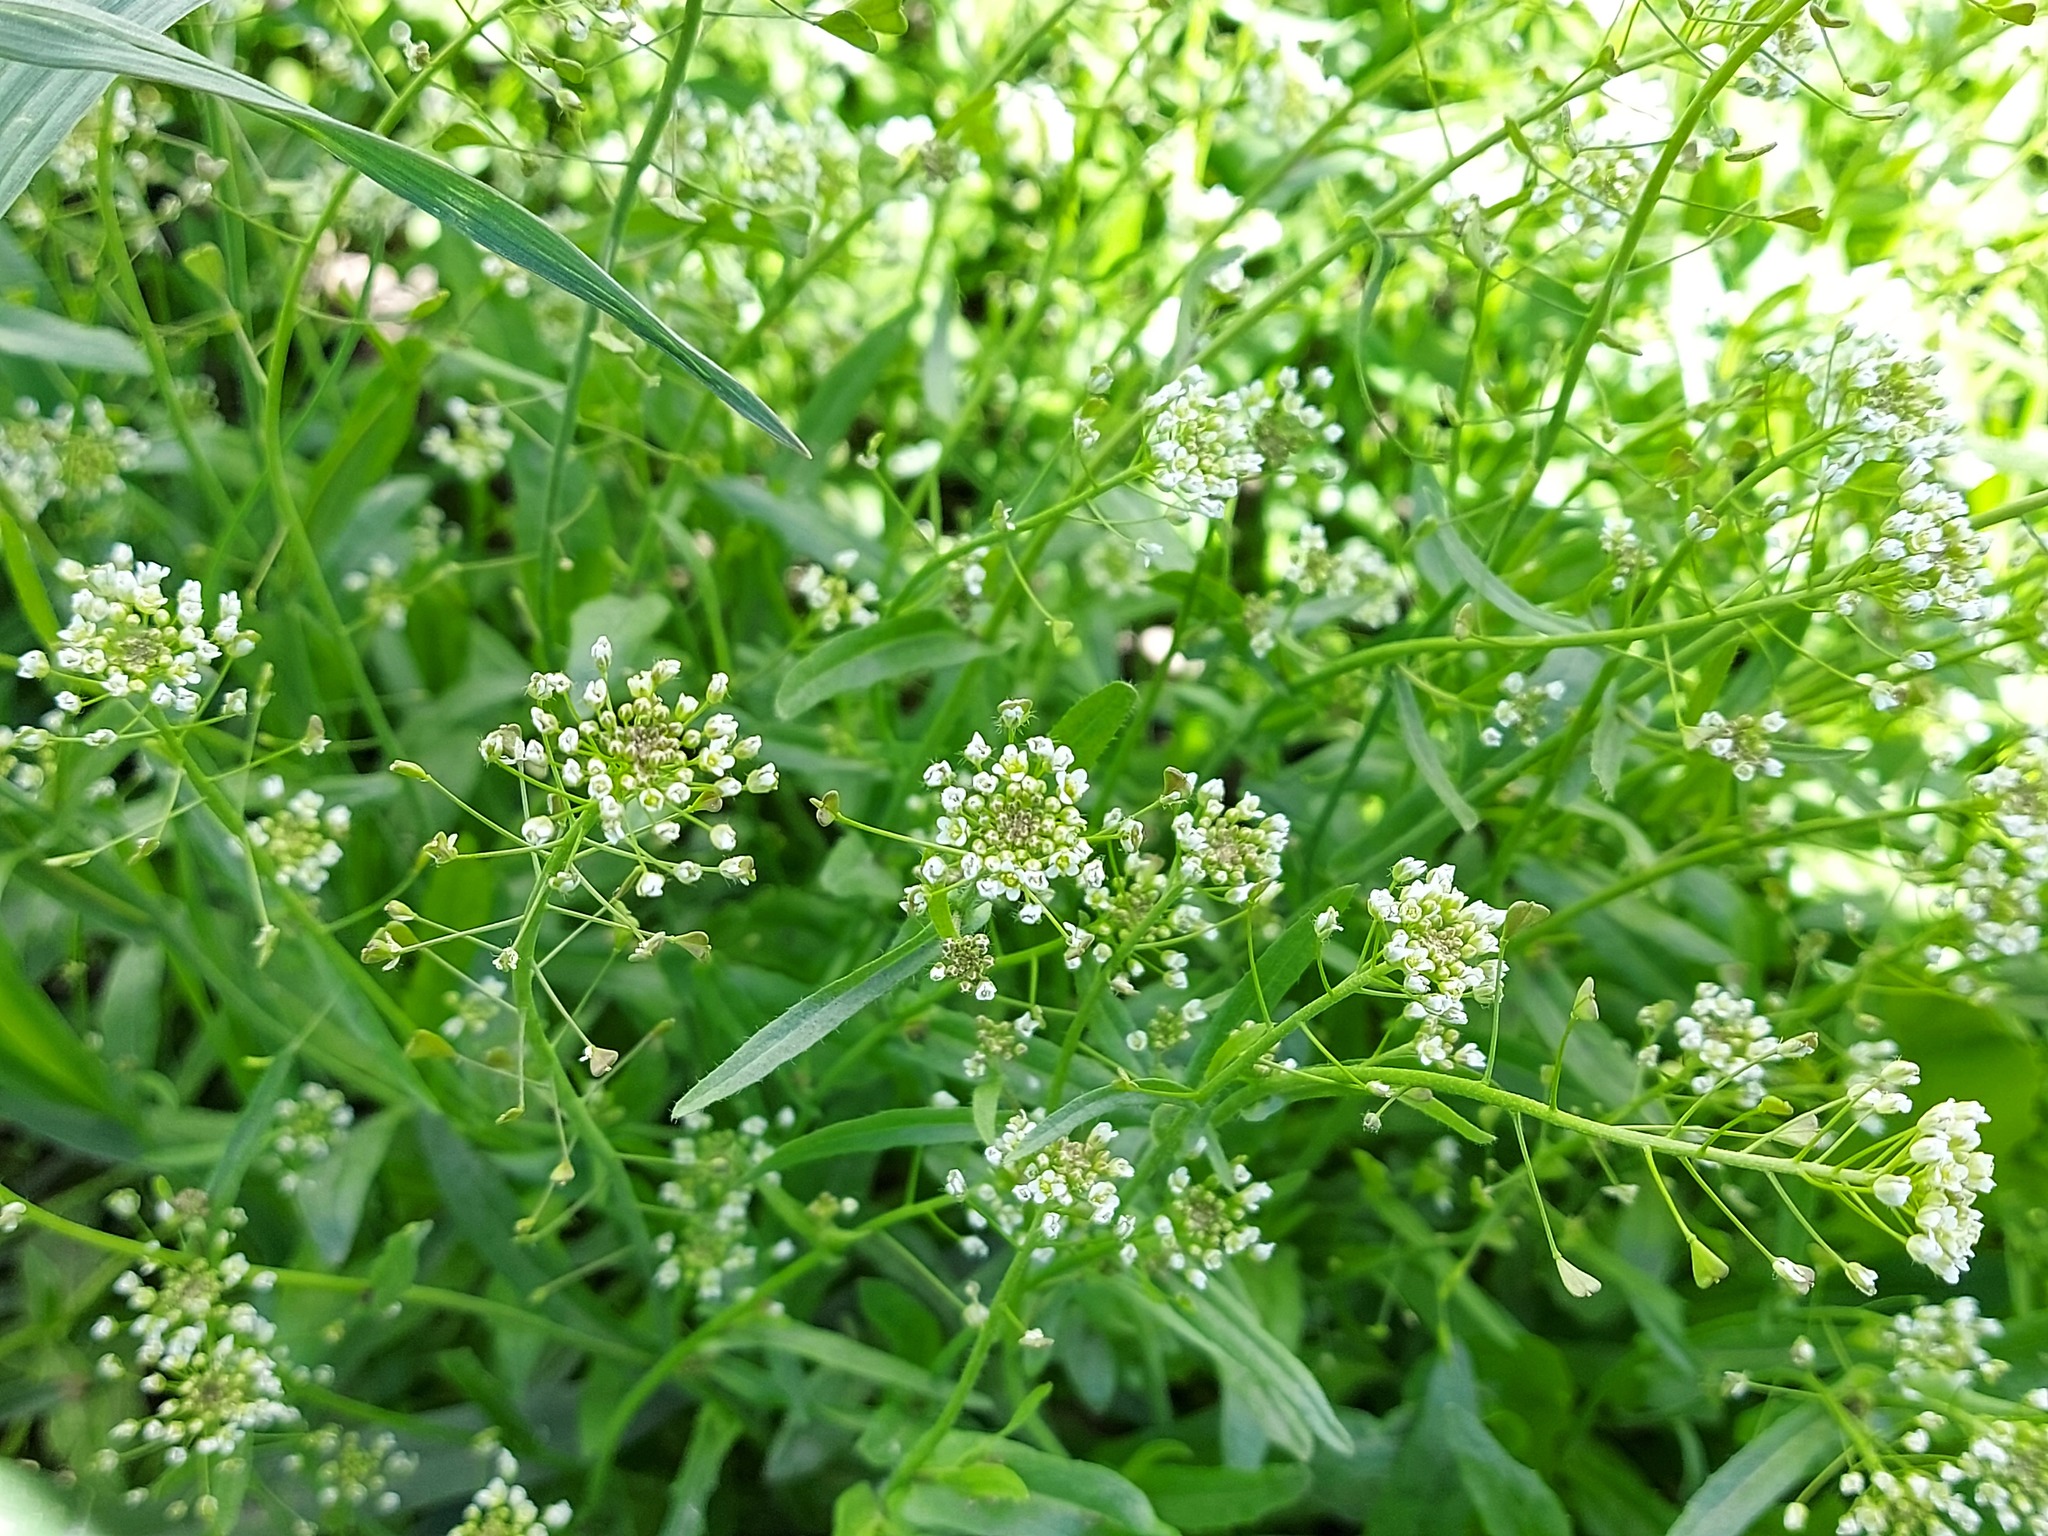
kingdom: Plantae
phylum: Tracheophyta
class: Magnoliopsida
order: Brassicales
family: Brassicaceae
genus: Capsella
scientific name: Capsella bursa-pastoris
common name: Shepherd's purse
